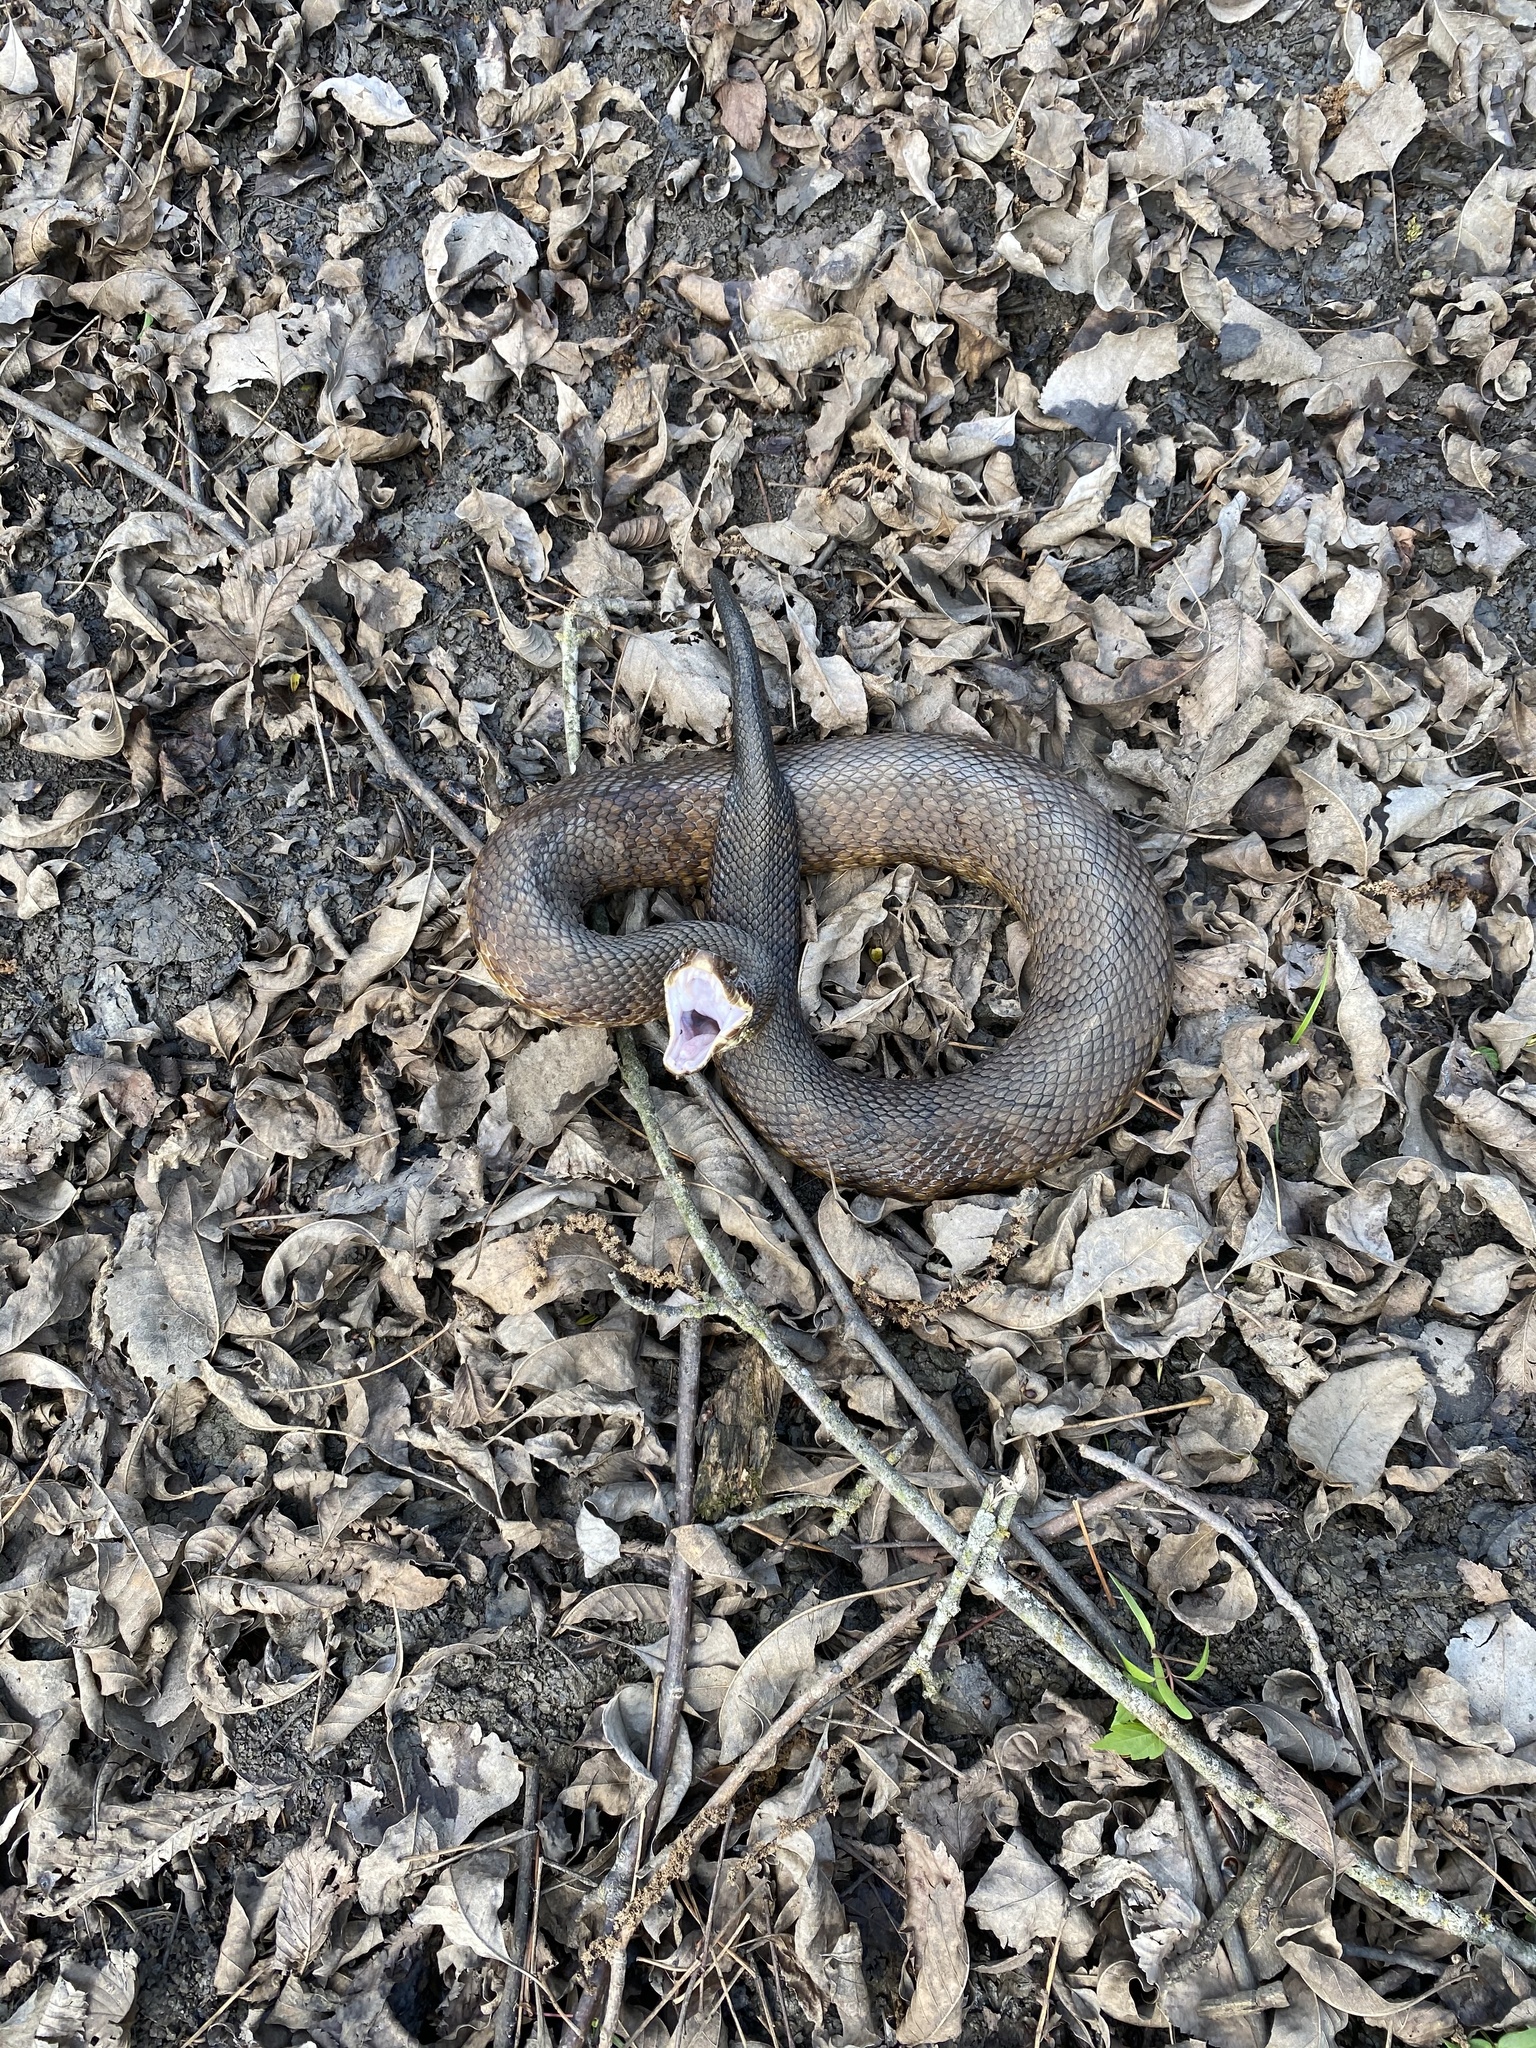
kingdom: Animalia
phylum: Chordata
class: Squamata
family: Viperidae
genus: Agkistrodon
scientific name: Agkistrodon piscivorus
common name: Cottonmouth
